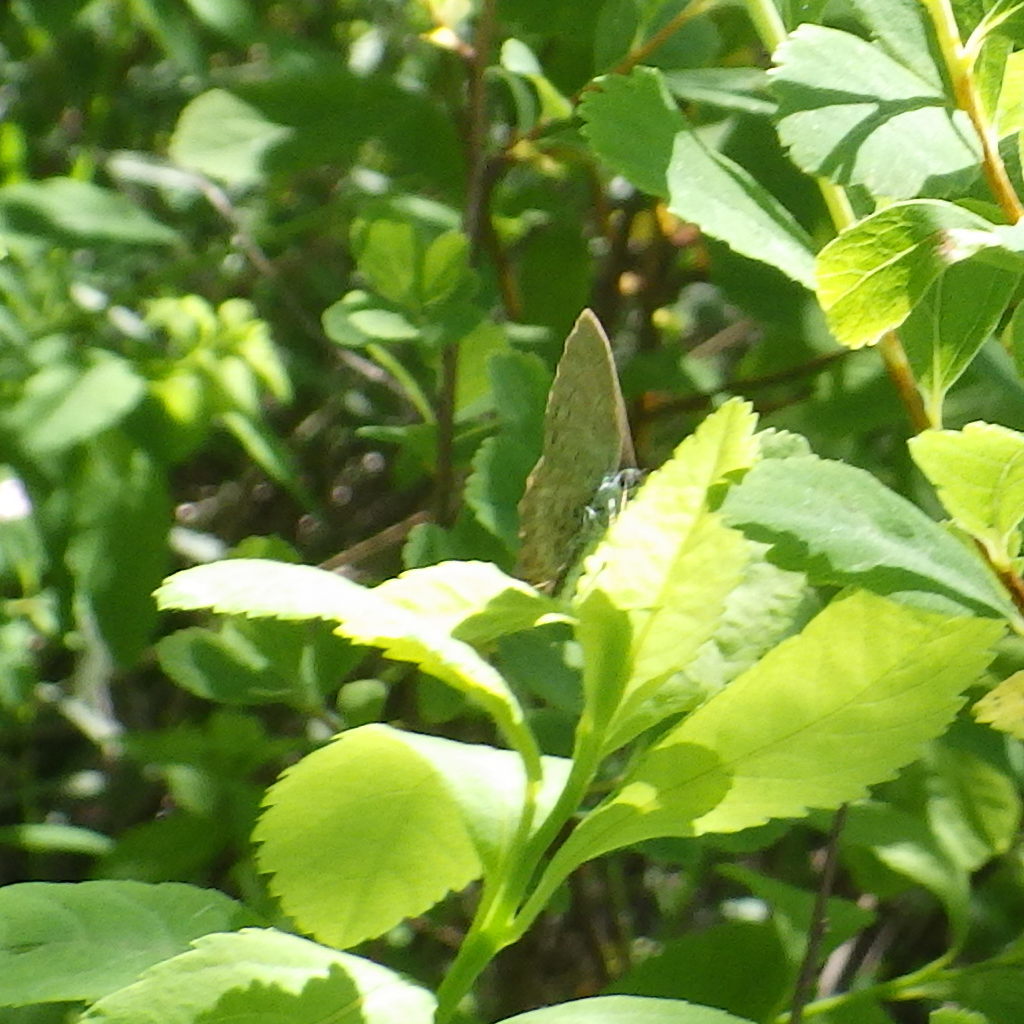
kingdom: Animalia
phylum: Arthropoda
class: Insecta
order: Lepidoptera
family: Lycaenidae
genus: Celastrina
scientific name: Celastrina lucia
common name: Lucia azure
